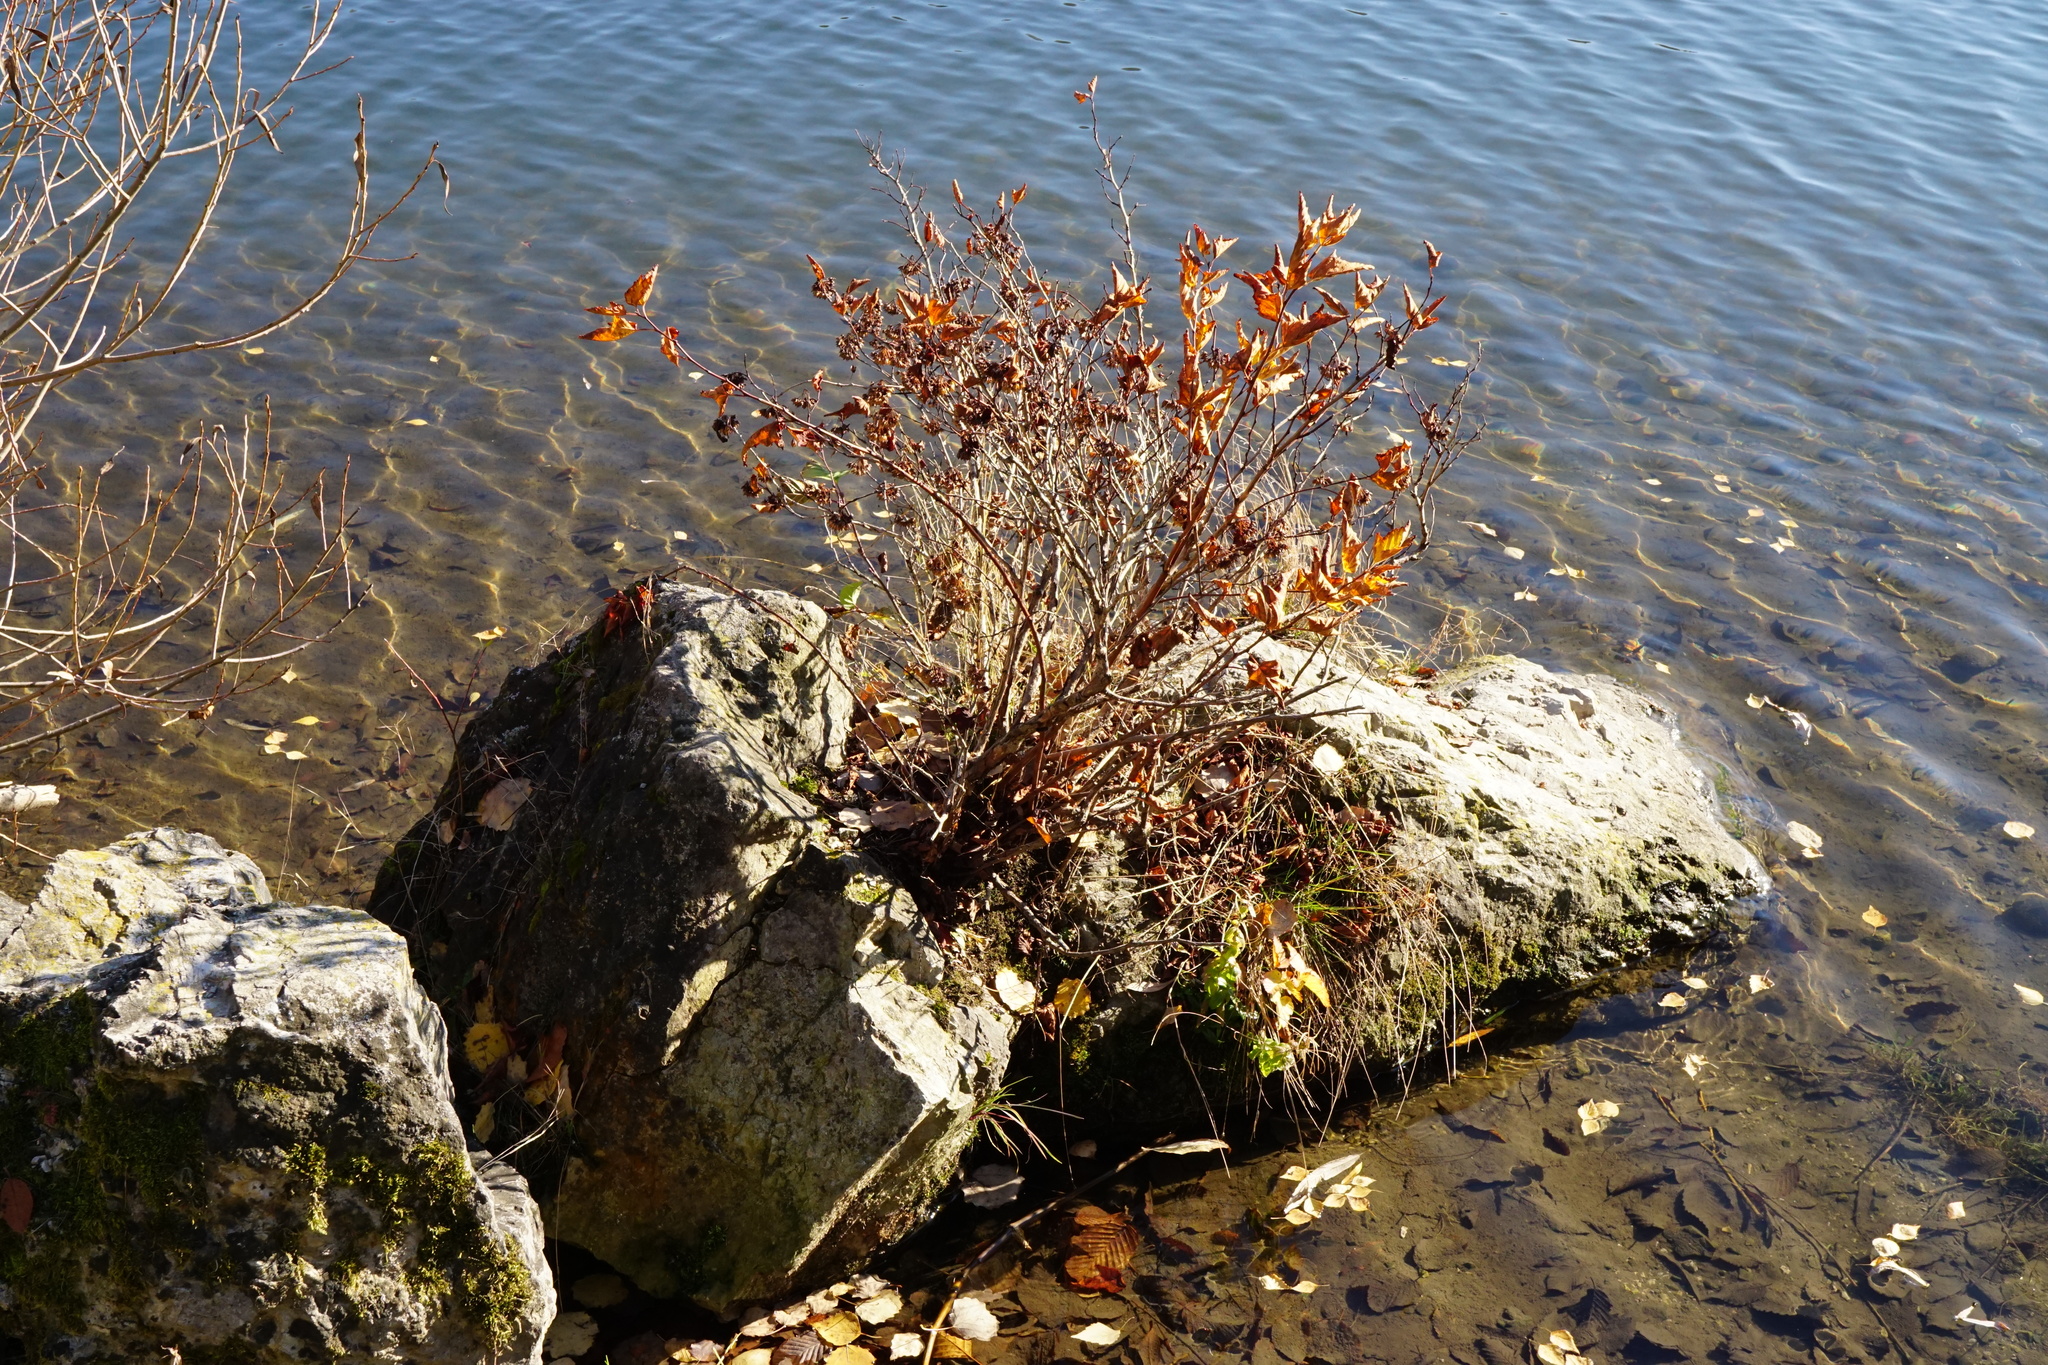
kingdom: Plantae
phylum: Tracheophyta
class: Magnoliopsida
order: Rosales
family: Rosaceae
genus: Physocarpus
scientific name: Physocarpus opulifolius
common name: Ninebark
